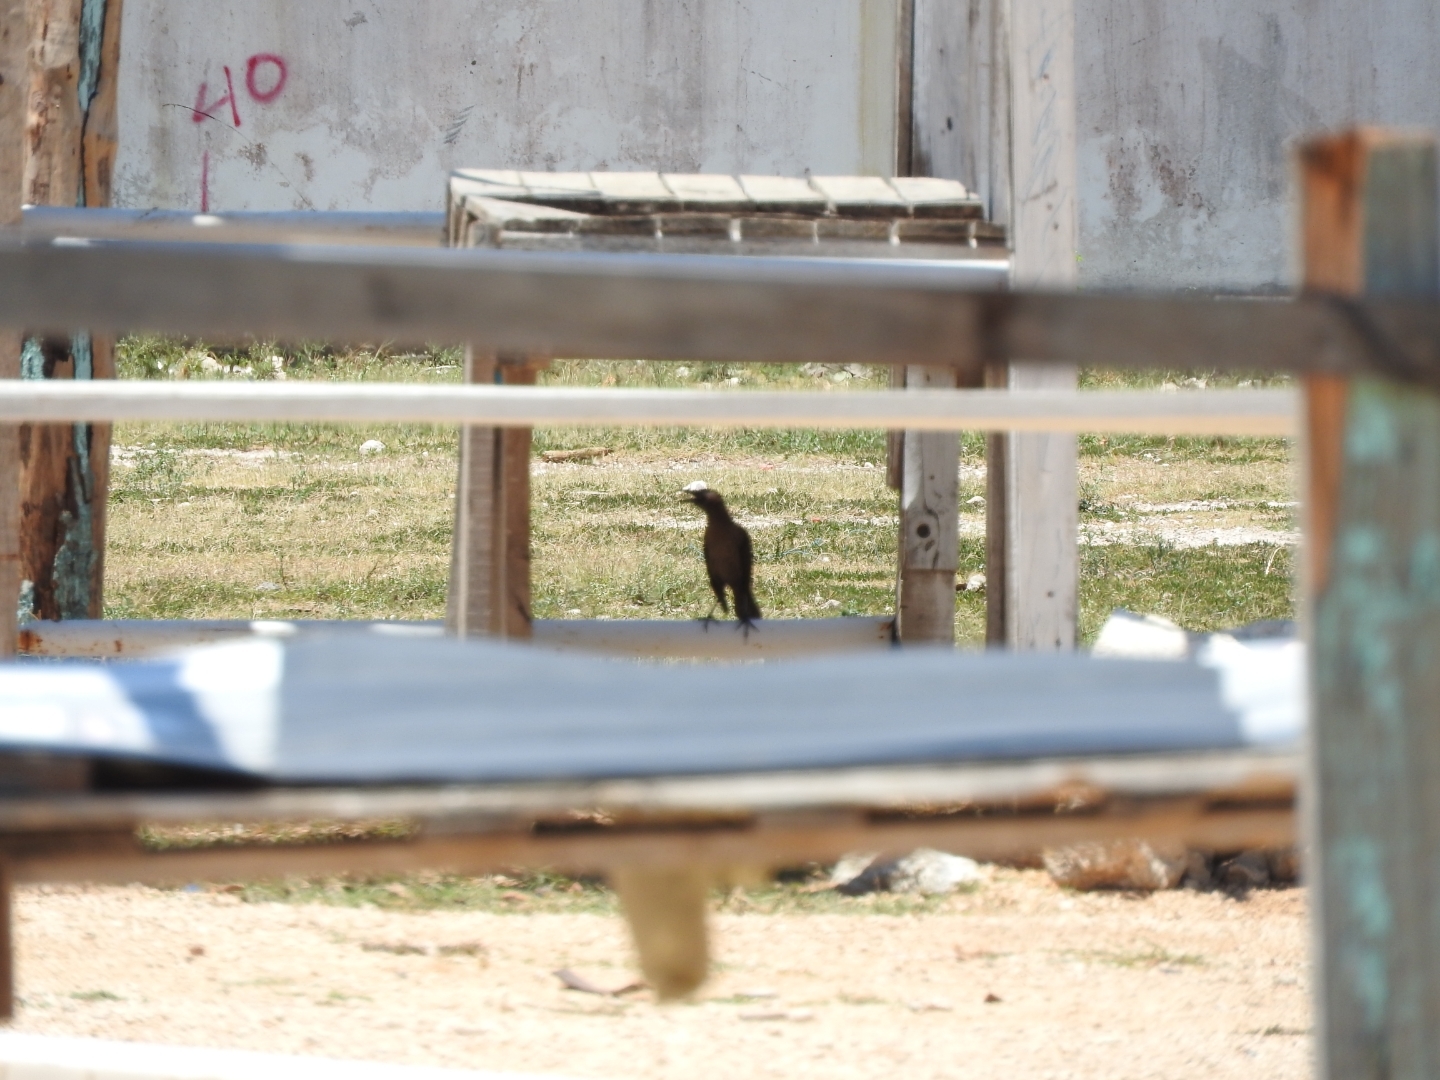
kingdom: Animalia
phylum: Chordata
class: Aves
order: Passeriformes
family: Icteridae
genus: Quiscalus
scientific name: Quiscalus mexicanus
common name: Great-tailed grackle
